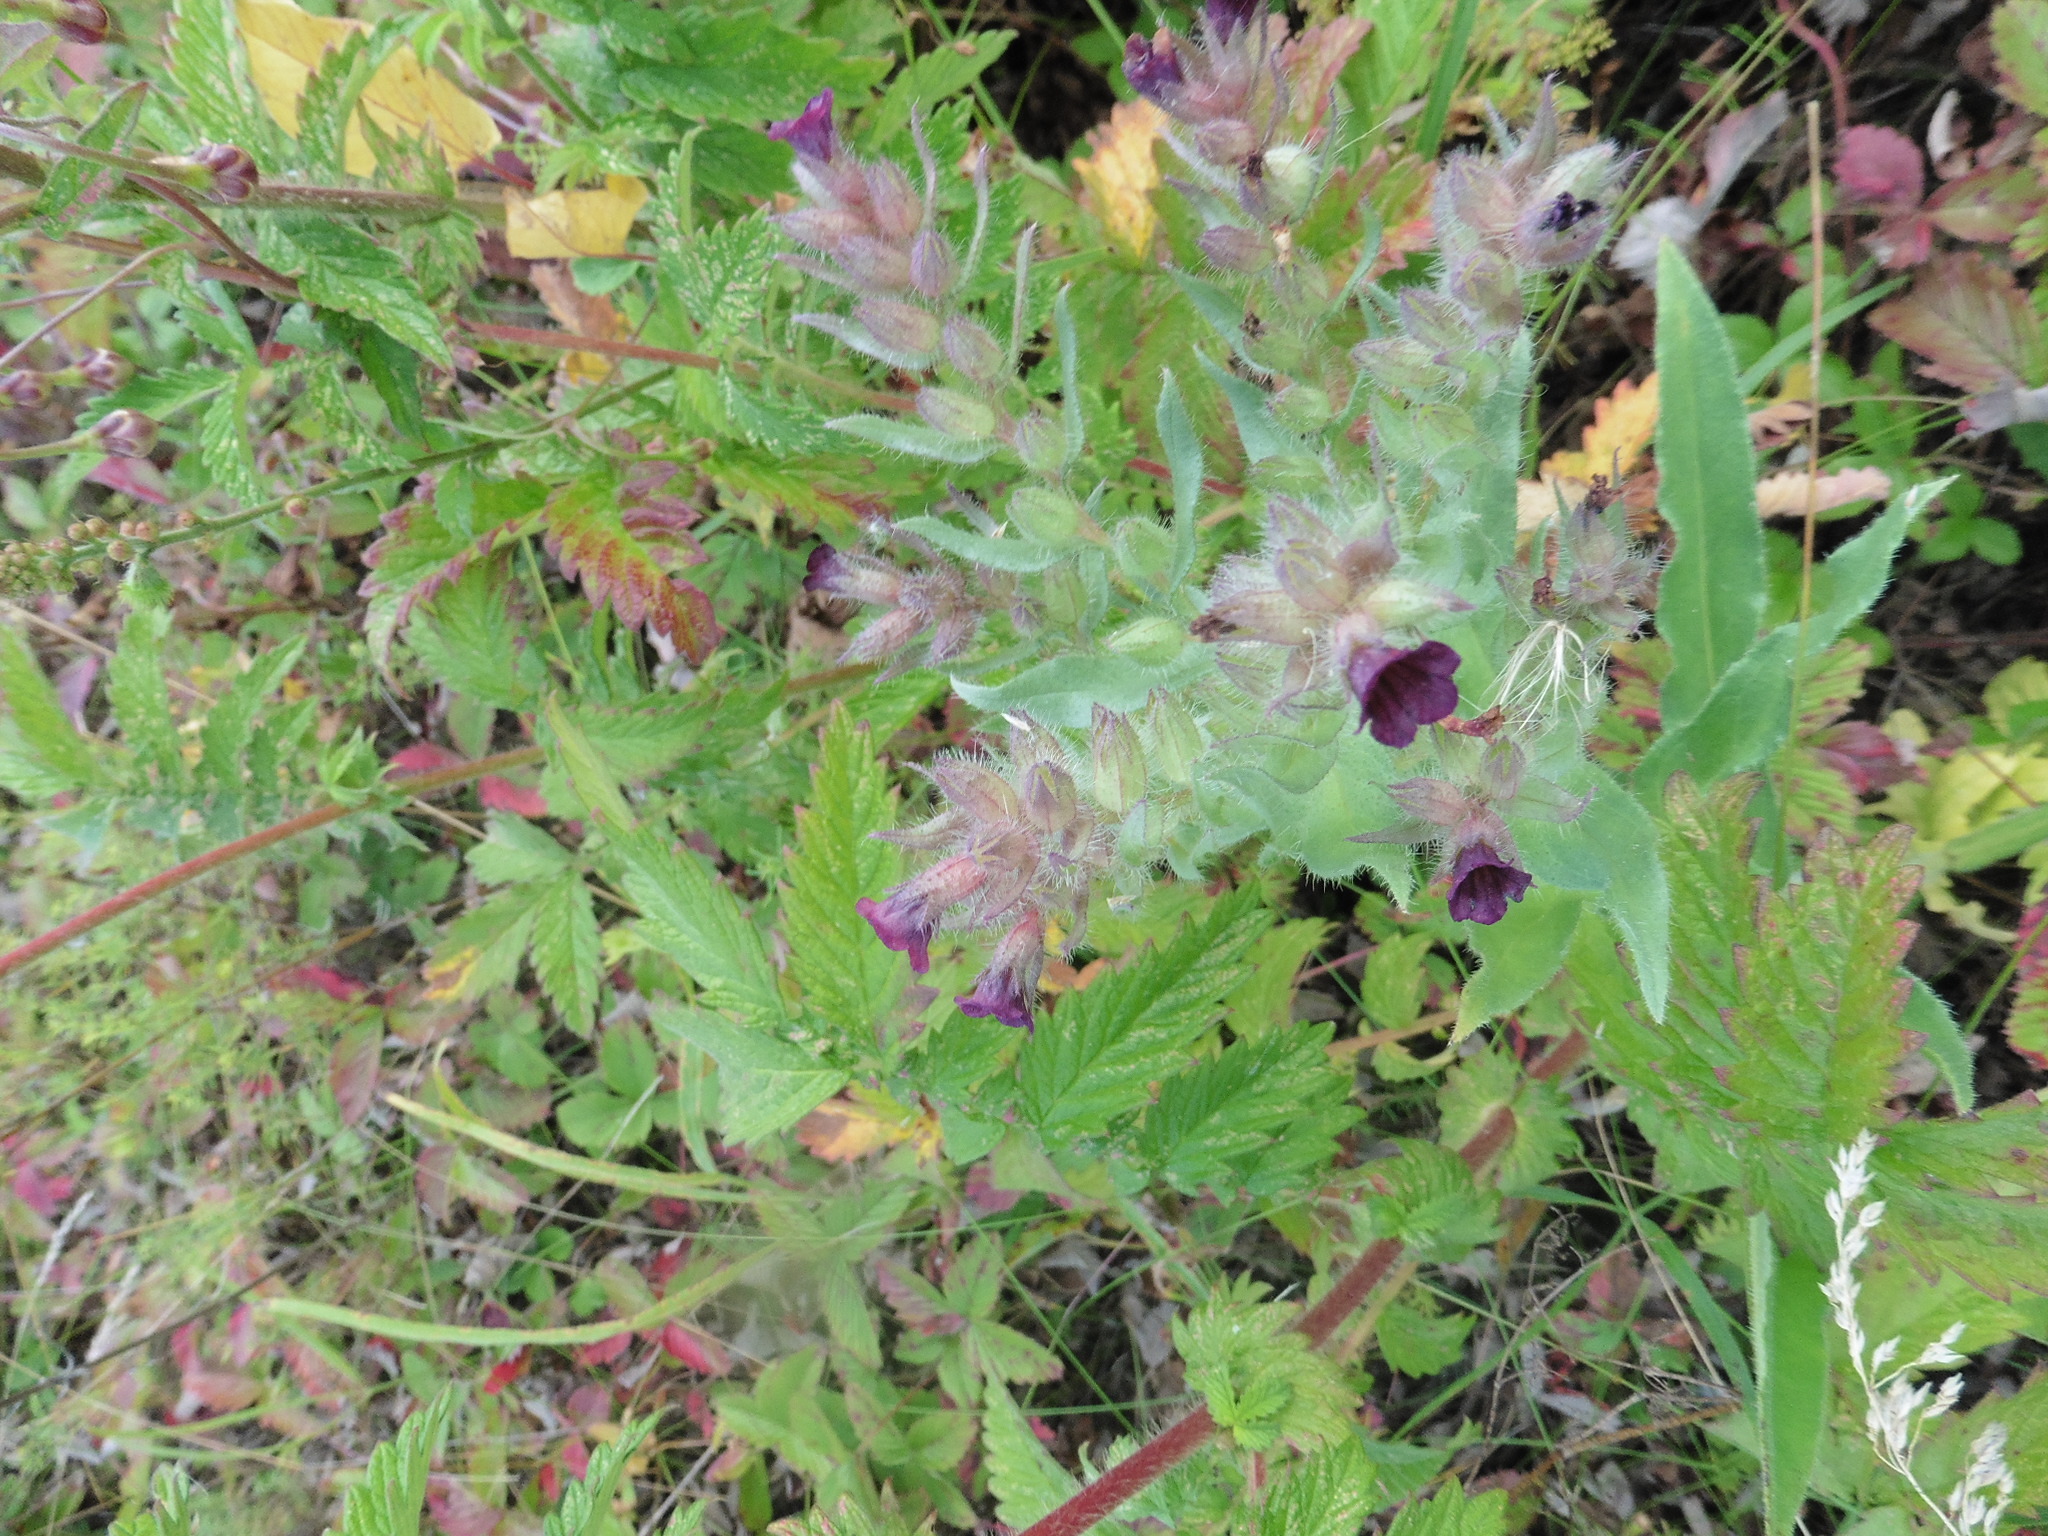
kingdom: Plantae
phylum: Tracheophyta
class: Magnoliopsida
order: Boraginales
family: Boraginaceae
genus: Nonea
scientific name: Nonea pulla
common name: Brown nonea
